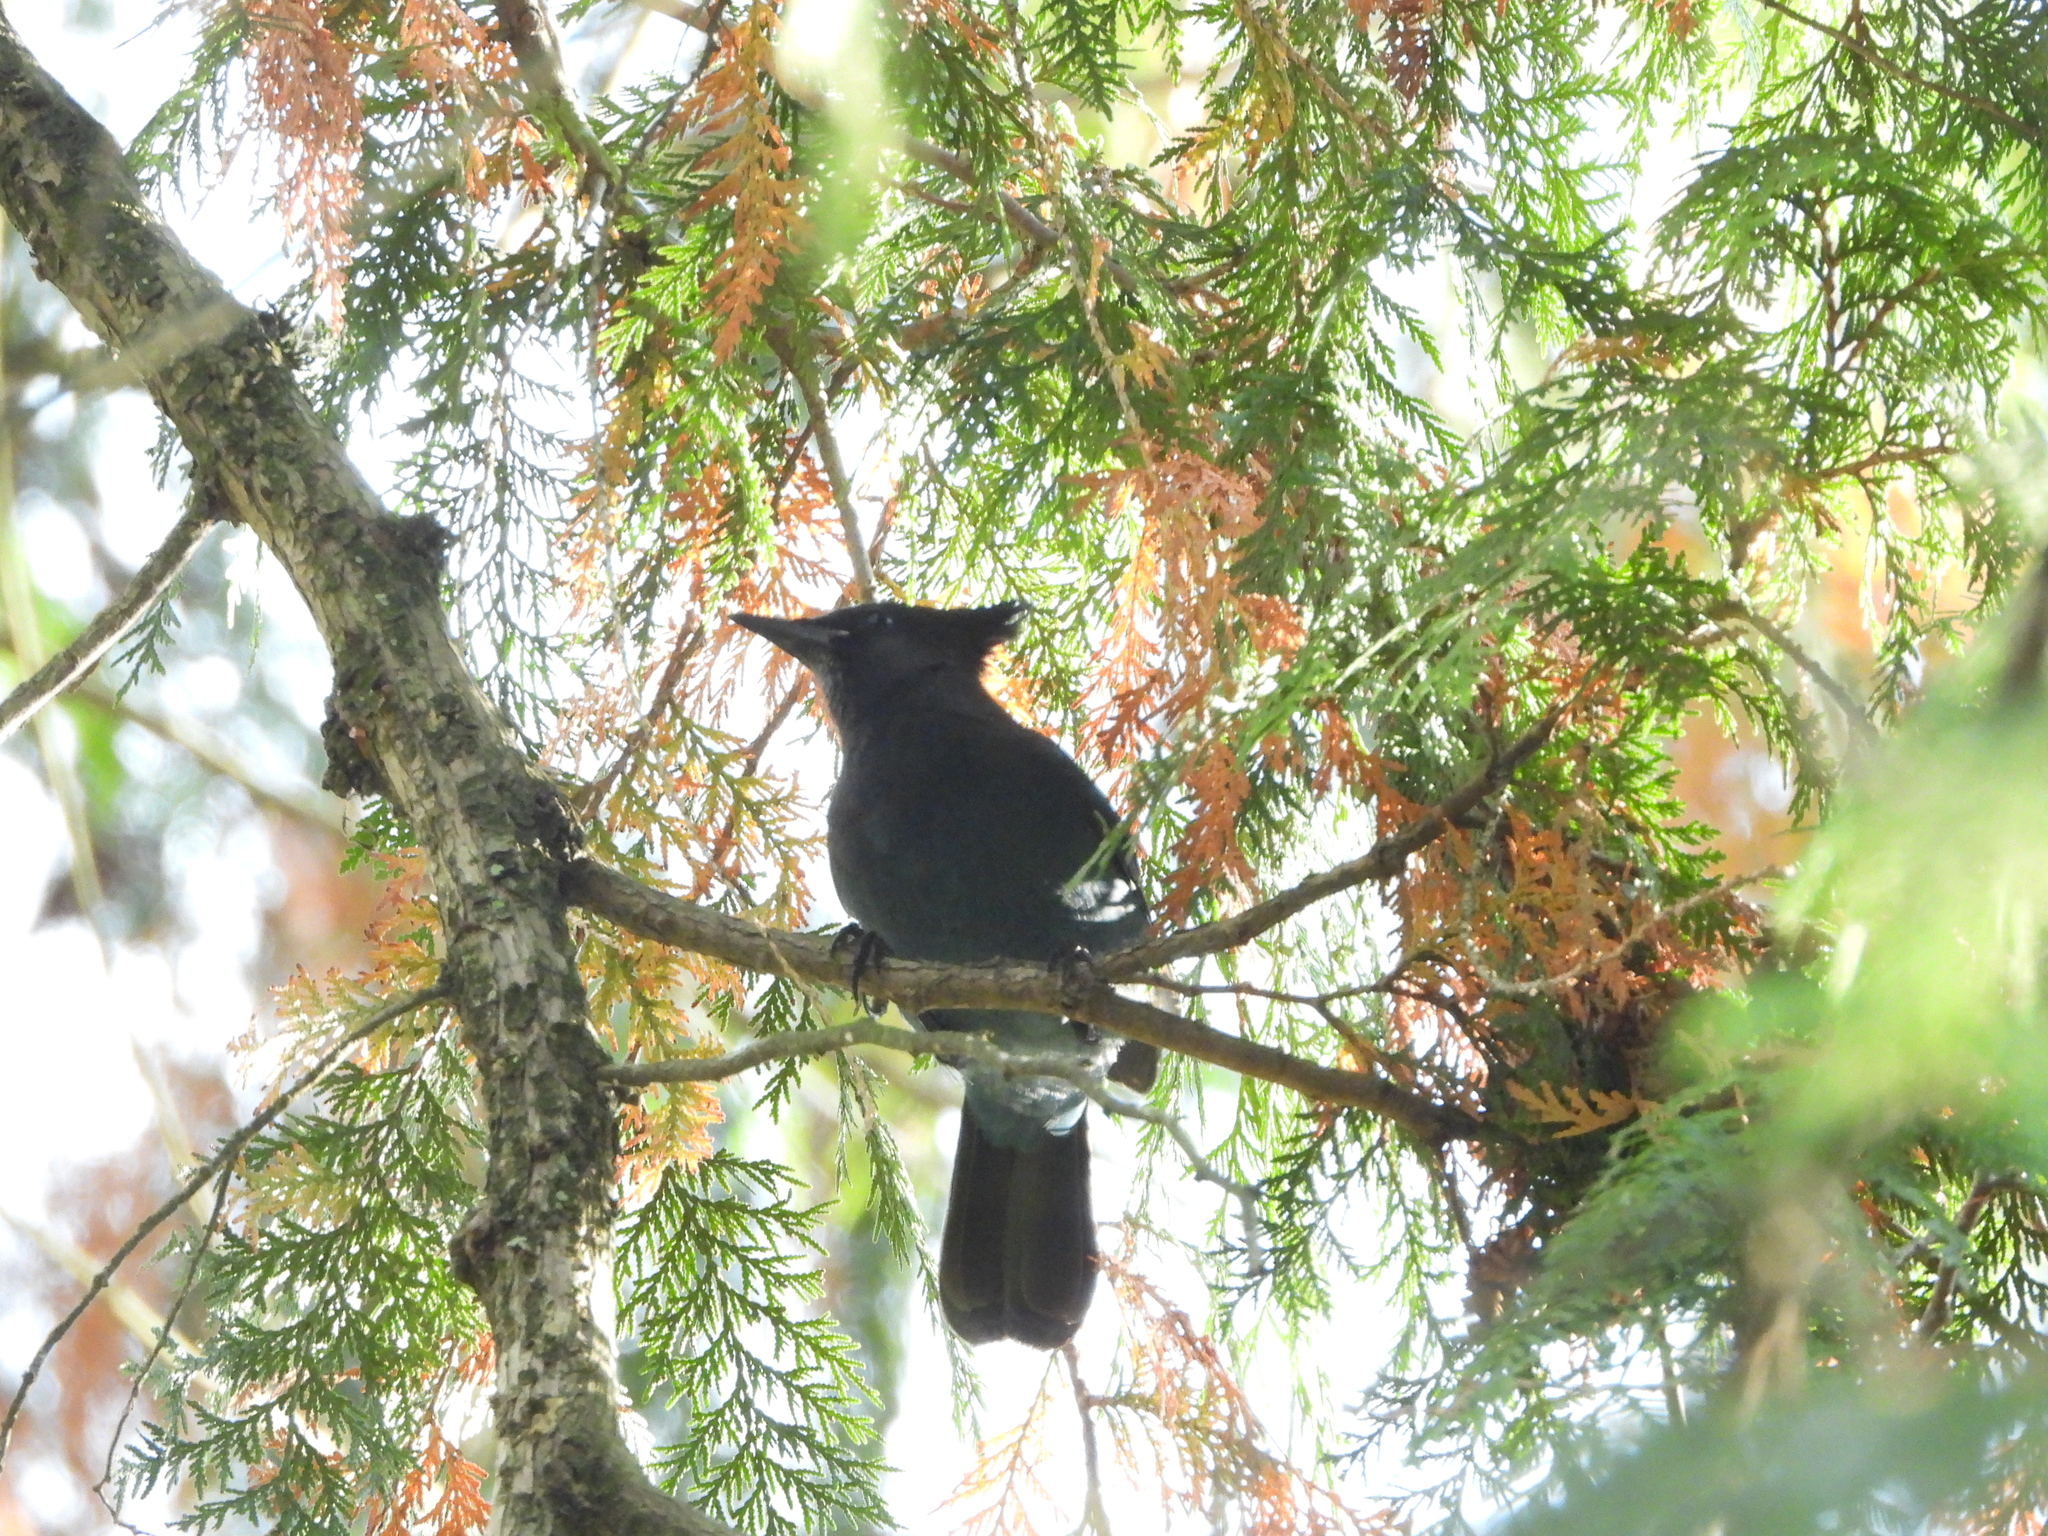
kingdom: Animalia
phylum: Chordata
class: Aves
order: Passeriformes
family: Corvidae
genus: Cyanocitta
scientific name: Cyanocitta stelleri
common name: Steller's jay
